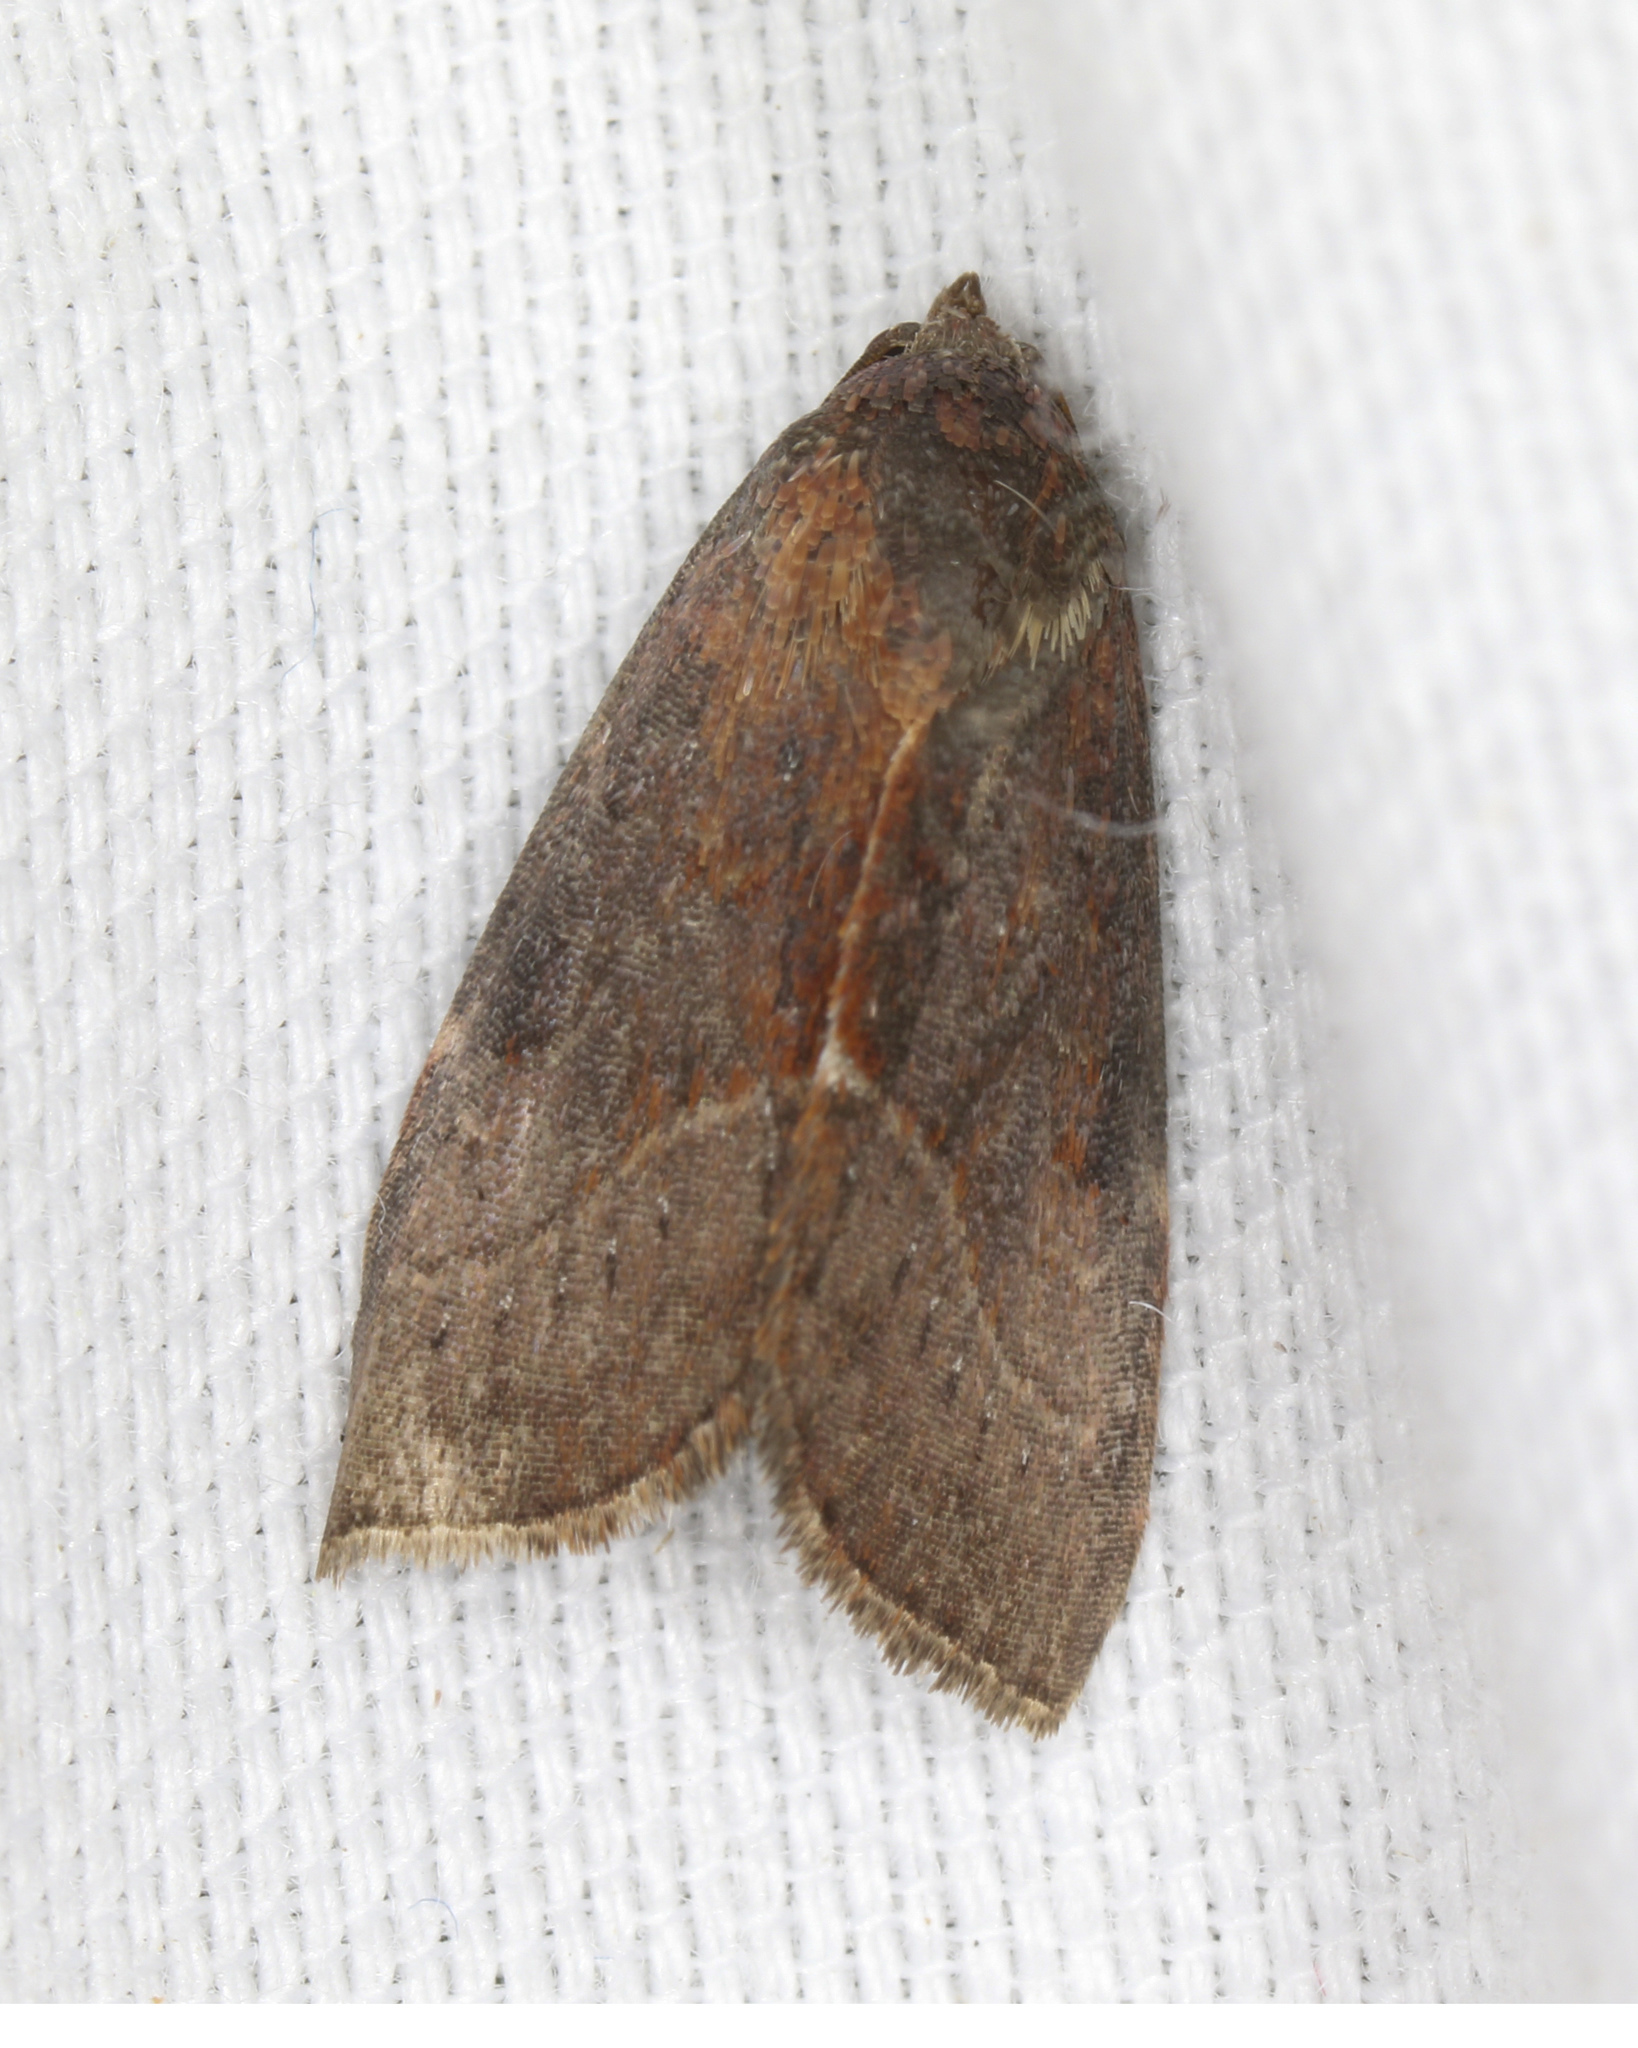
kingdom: Animalia
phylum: Arthropoda
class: Insecta
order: Lepidoptera
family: Noctuidae
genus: Galgula
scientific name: Galgula partita
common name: Wedgeling
